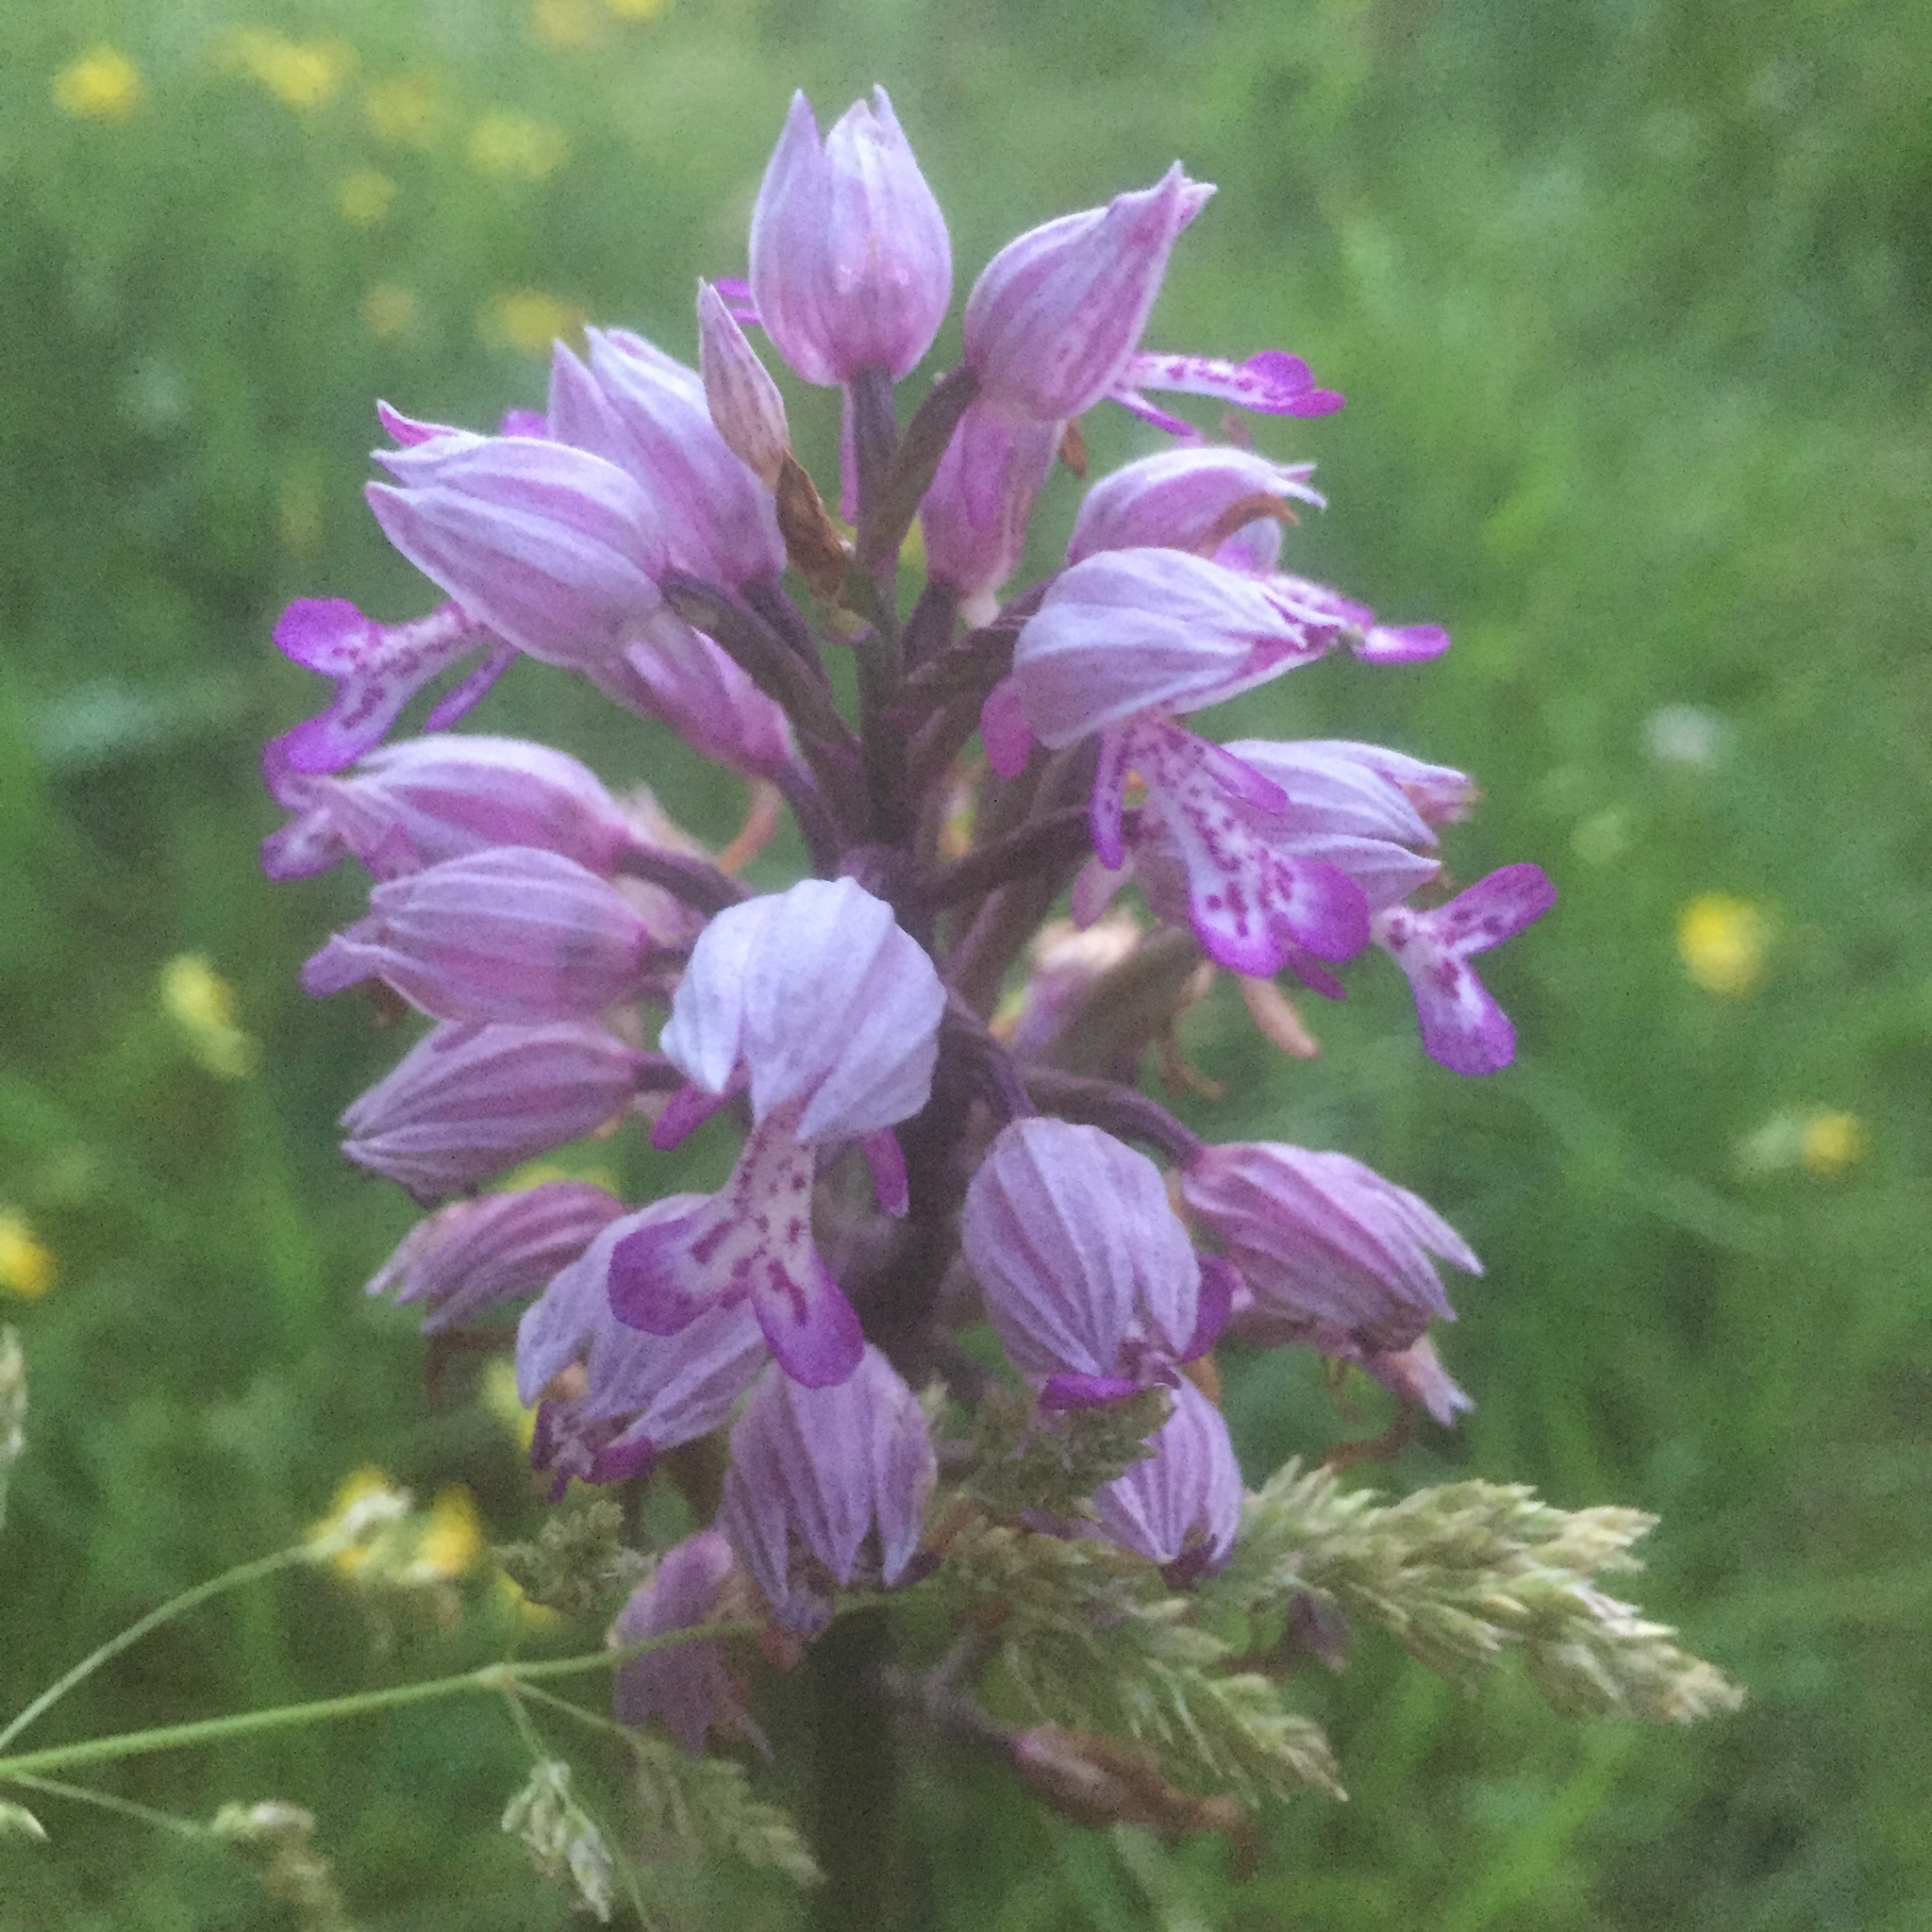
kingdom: Plantae
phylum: Tracheophyta
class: Liliopsida
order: Asparagales
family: Orchidaceae
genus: Orchis
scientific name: Orchis militaris
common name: Military orchid
